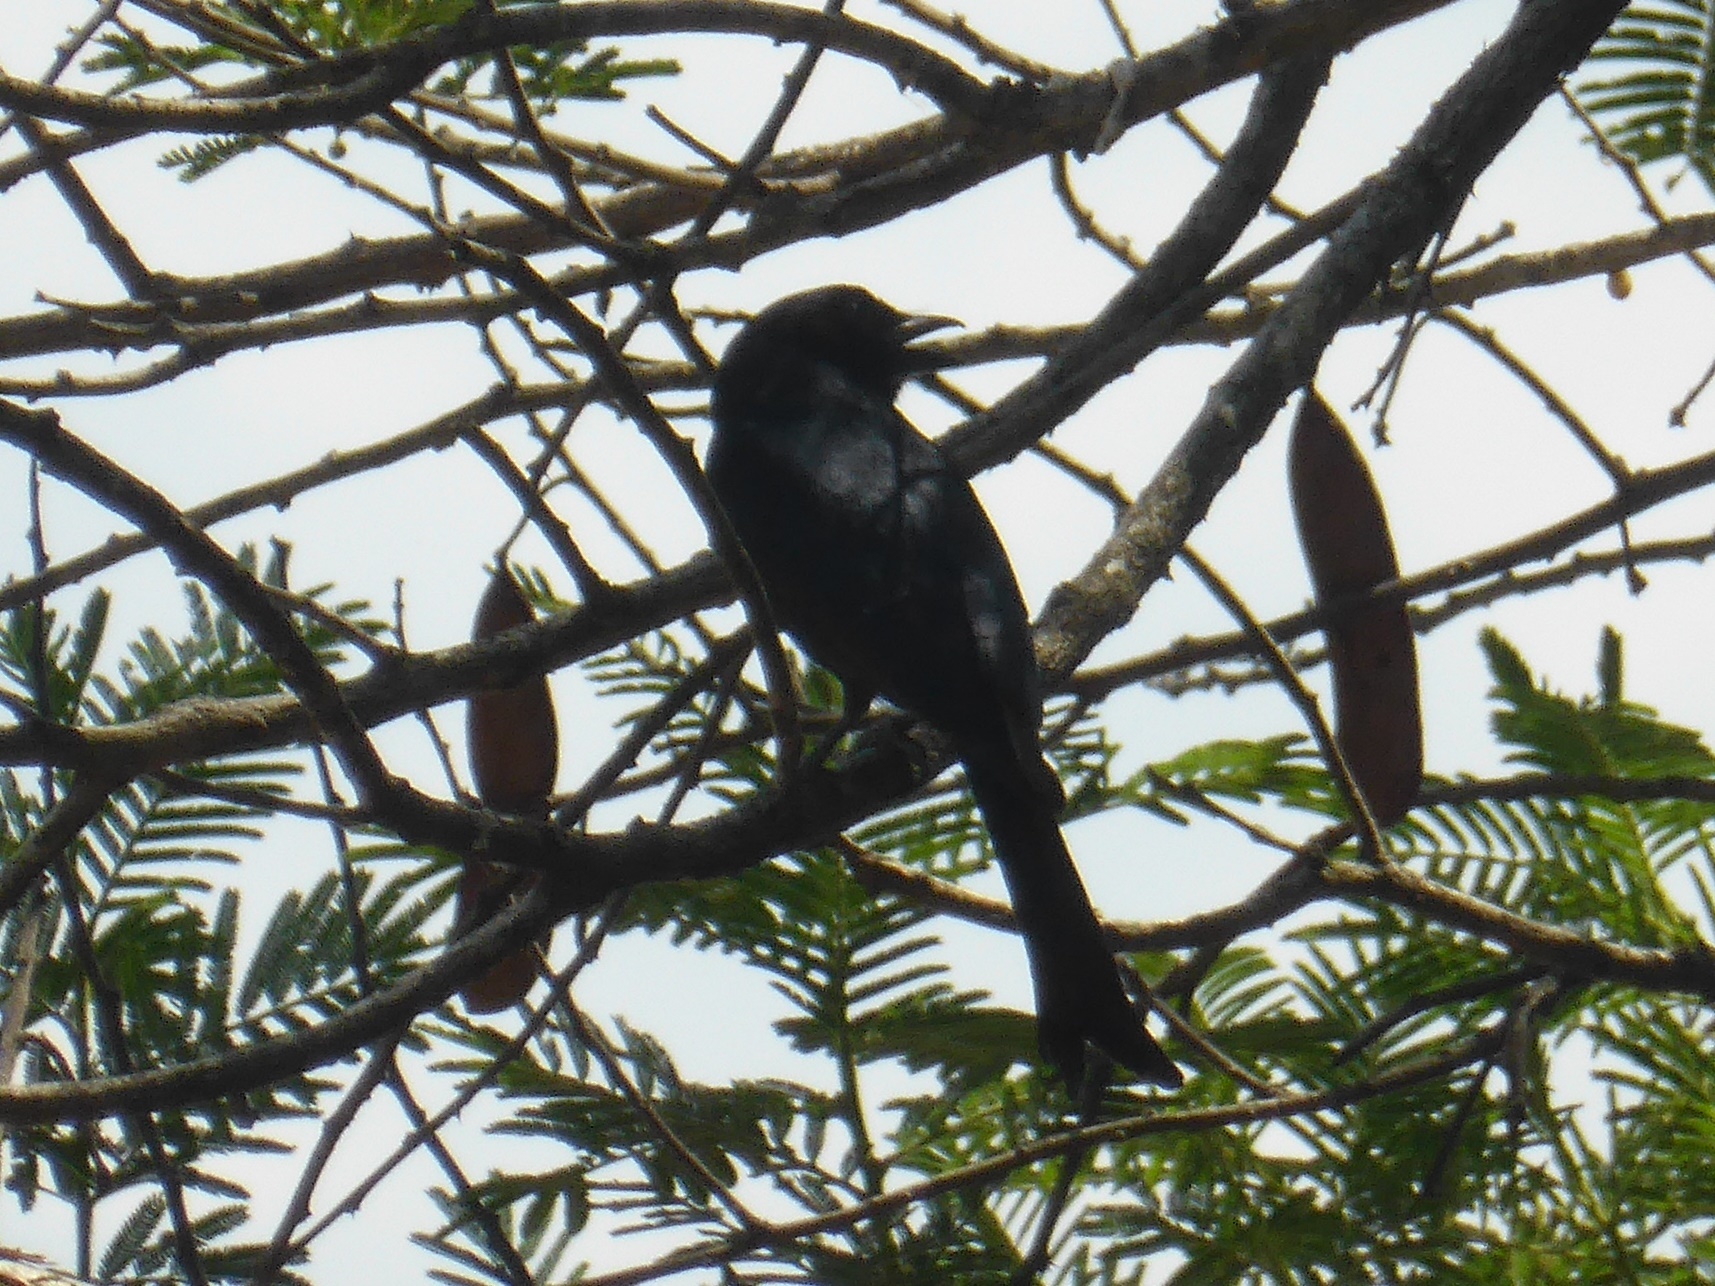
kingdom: Animalia
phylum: Chordata
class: Aves
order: Passeriformes
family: Dicruridae
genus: Dicrurus
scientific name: Dicrurus adsimilis
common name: Fork-tailed drongo
